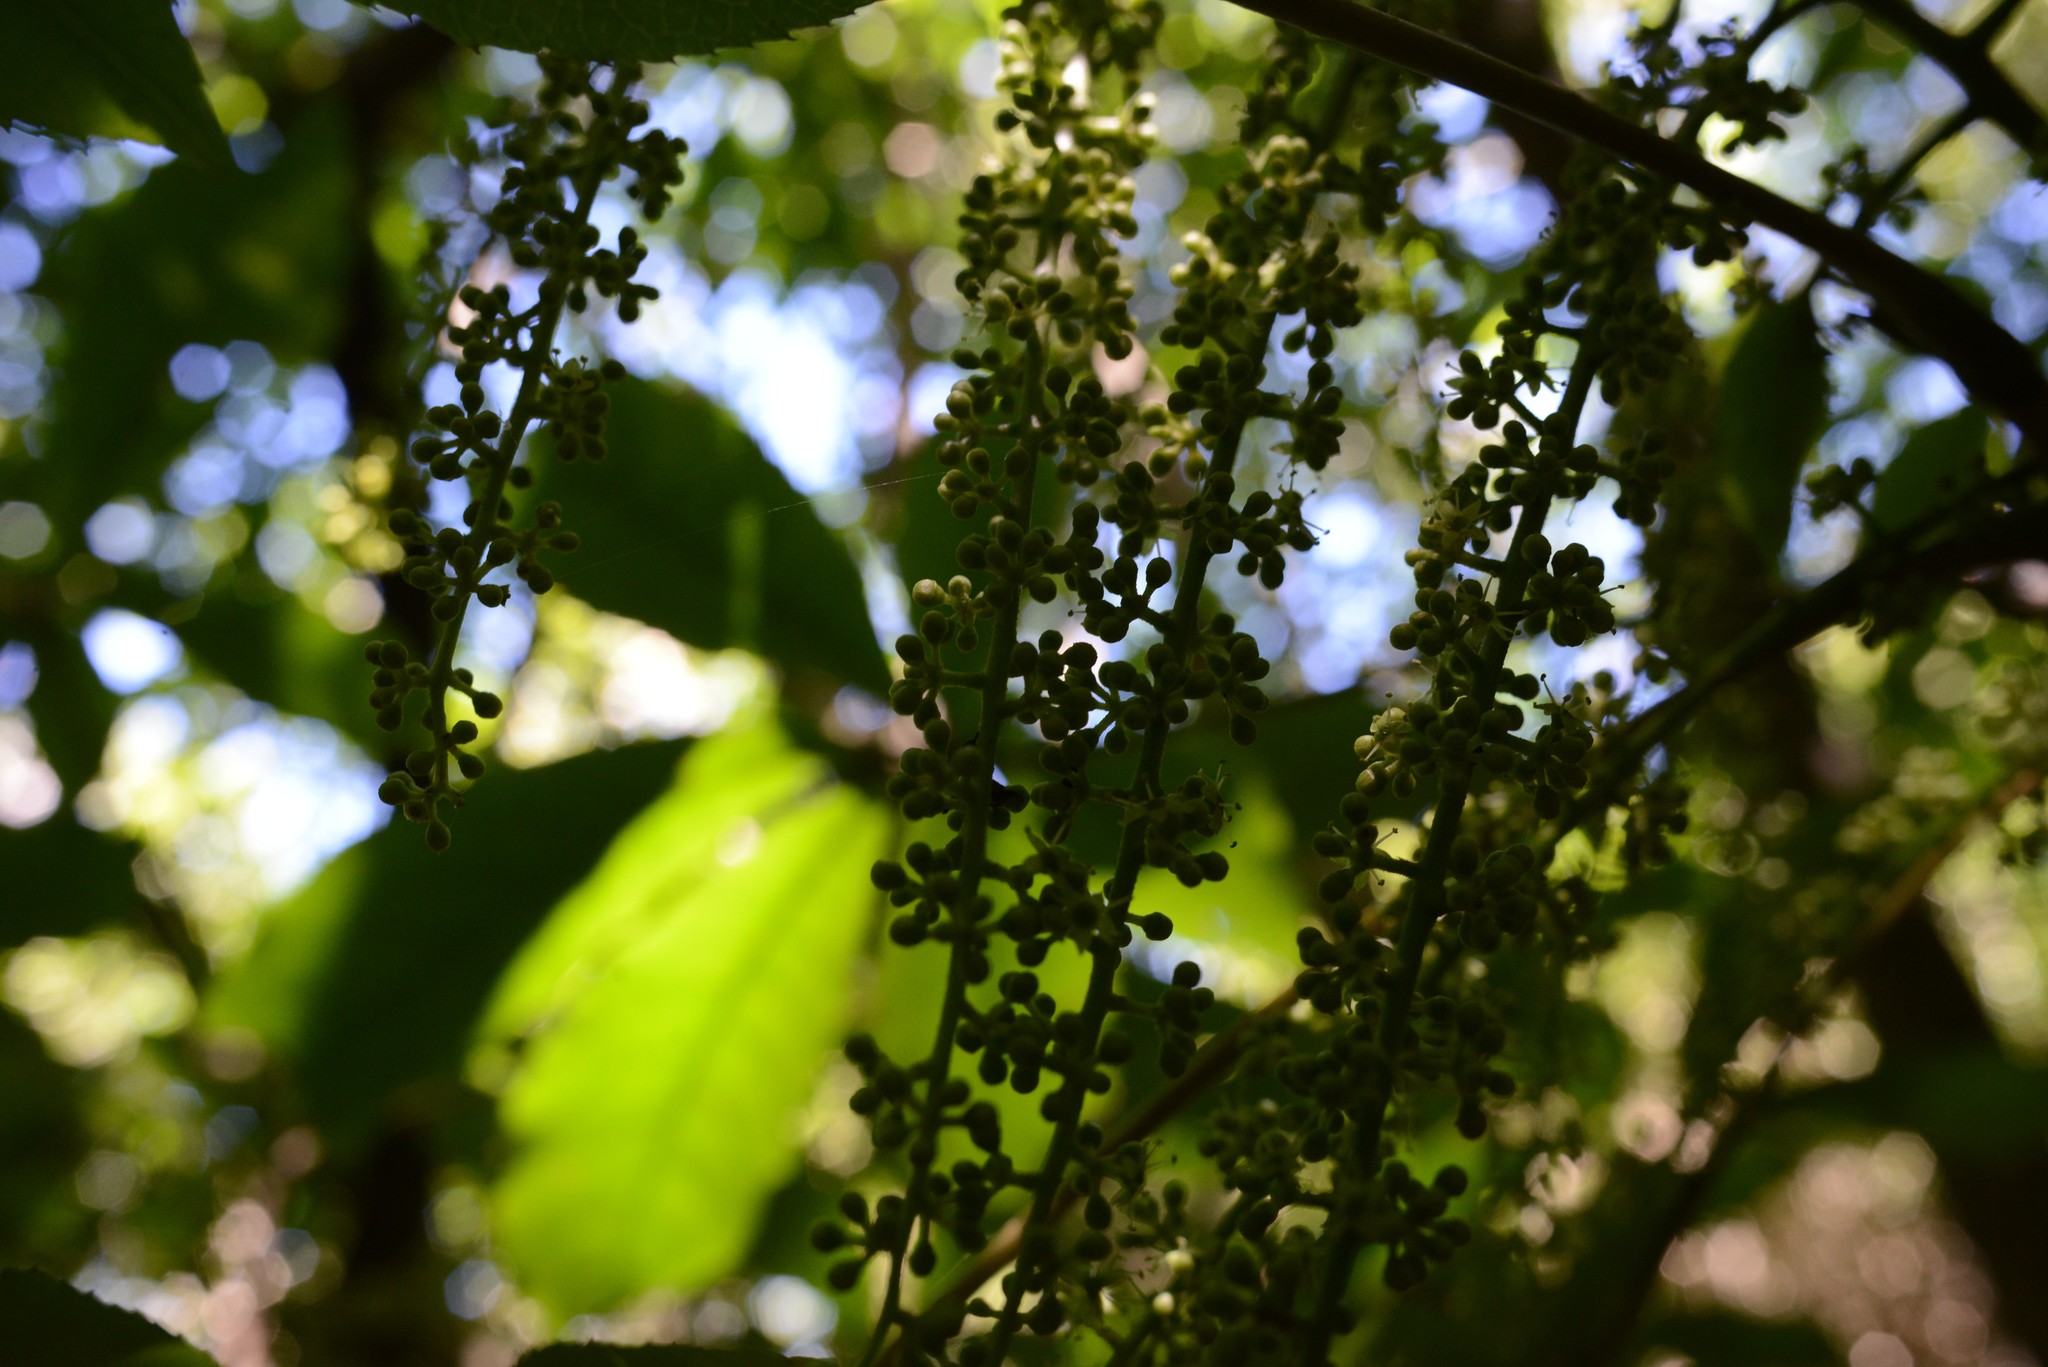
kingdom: Plantae
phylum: Tracheophyta
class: Magnoliopsida
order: Apiales
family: Araliaceae
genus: Schefflera
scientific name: Schefflera digitata
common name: Pate
